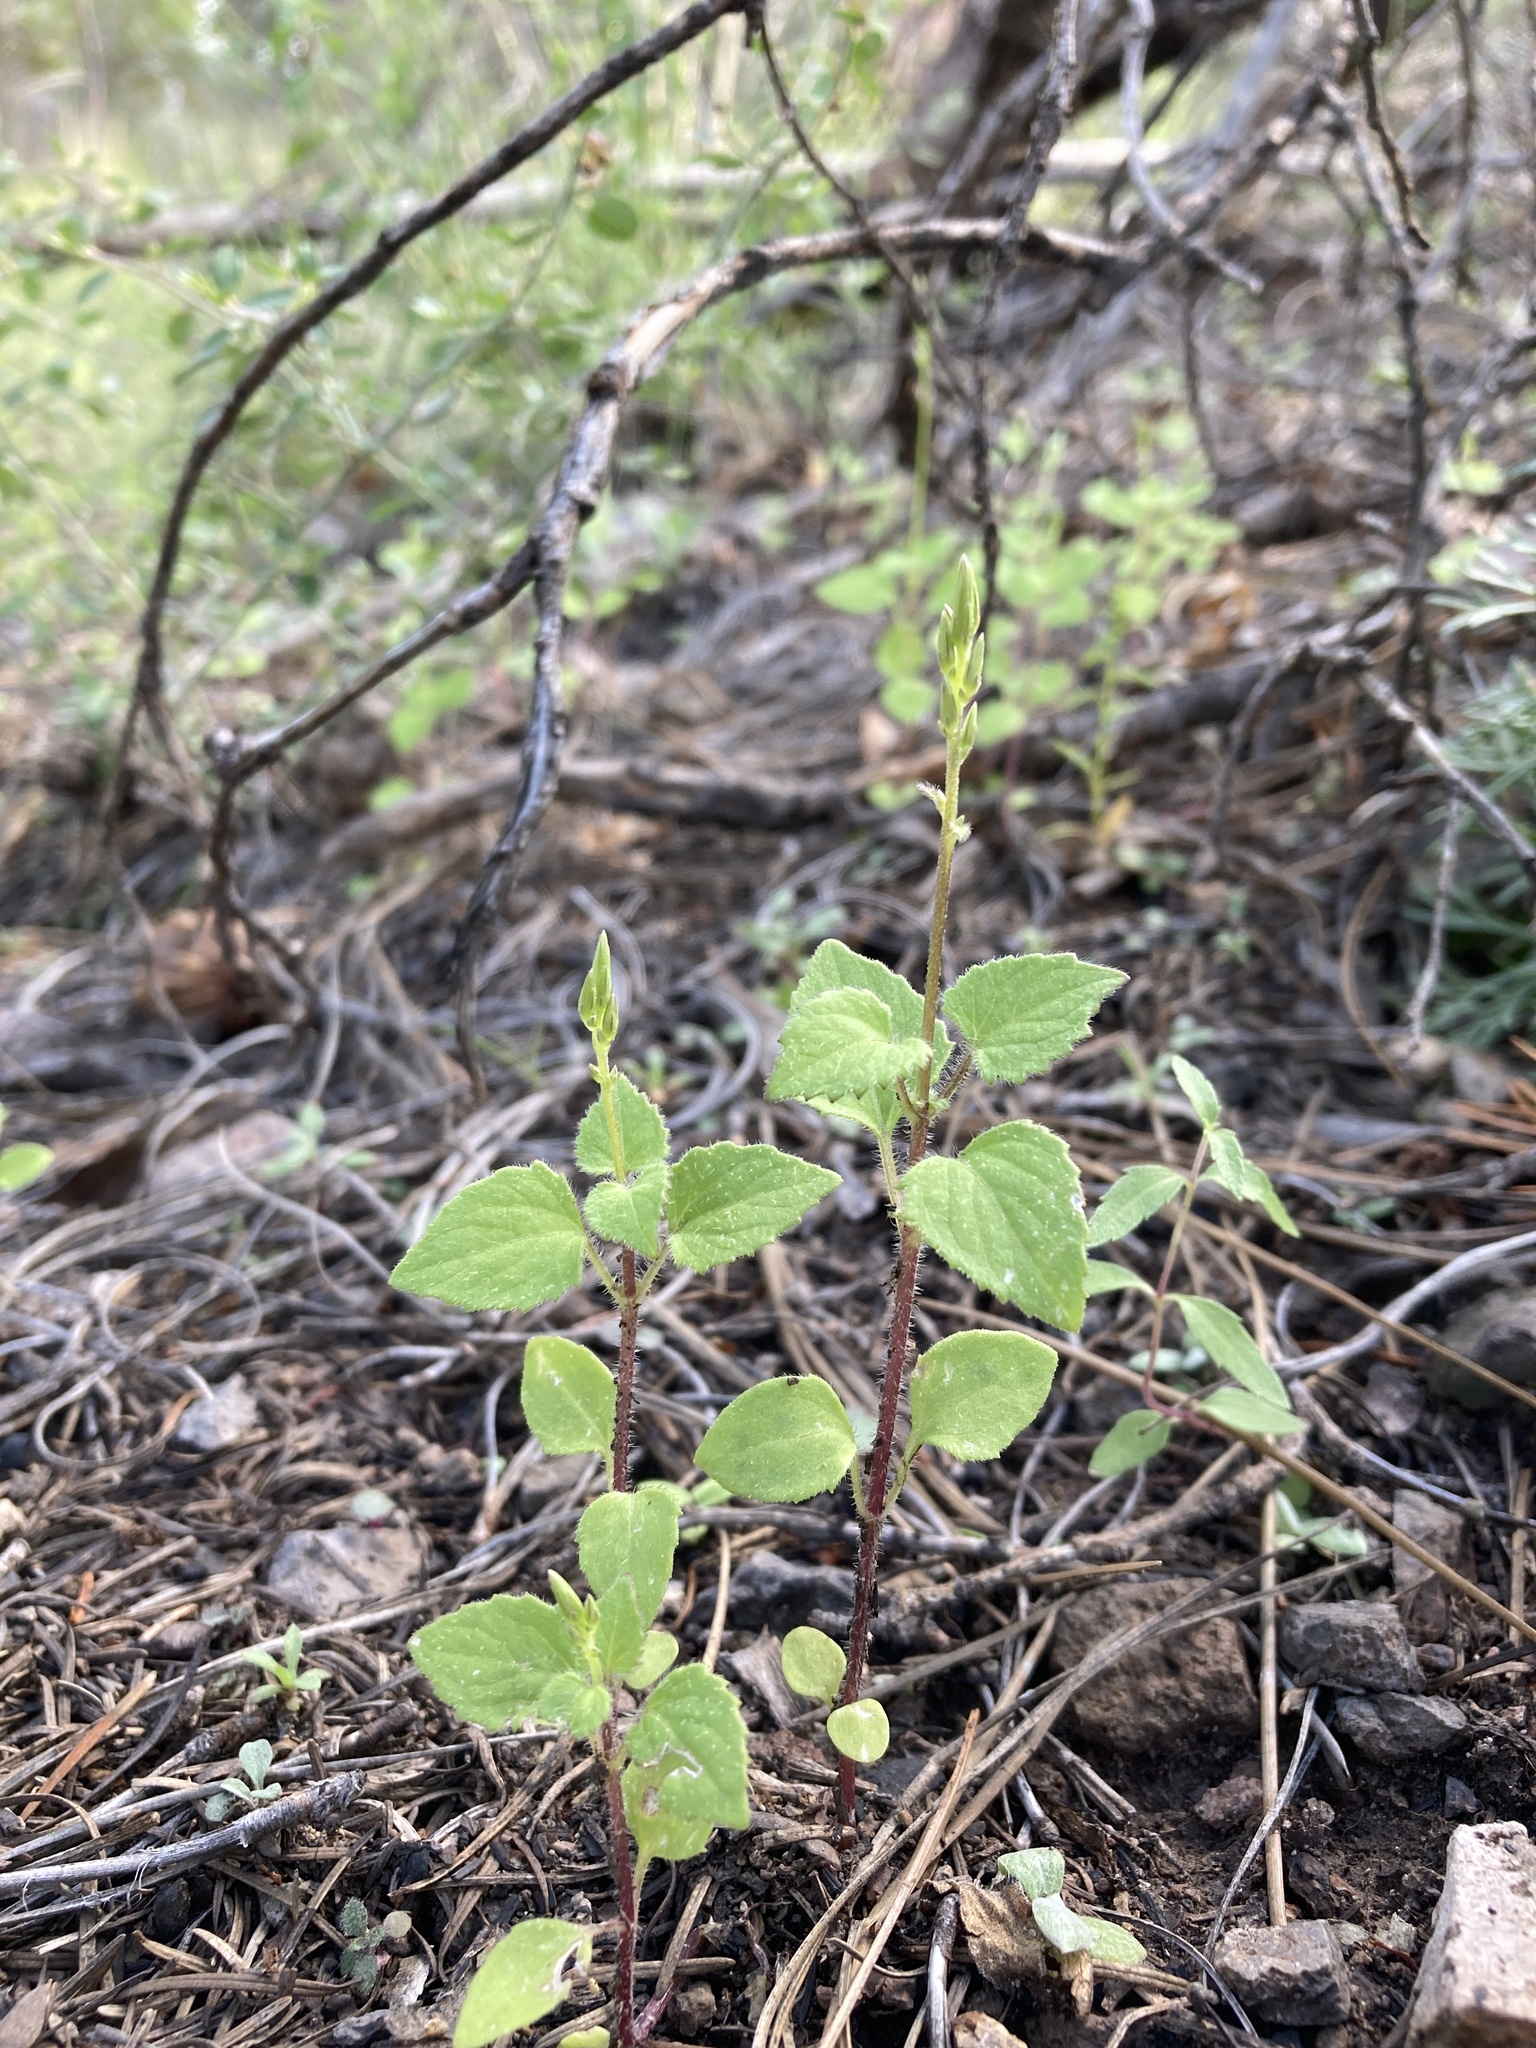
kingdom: Plantae
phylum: Tracheophyta
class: Magnoliopsida
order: Asterales
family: Asteraceae
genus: Carminatia
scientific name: Carminatia tenuiflora
